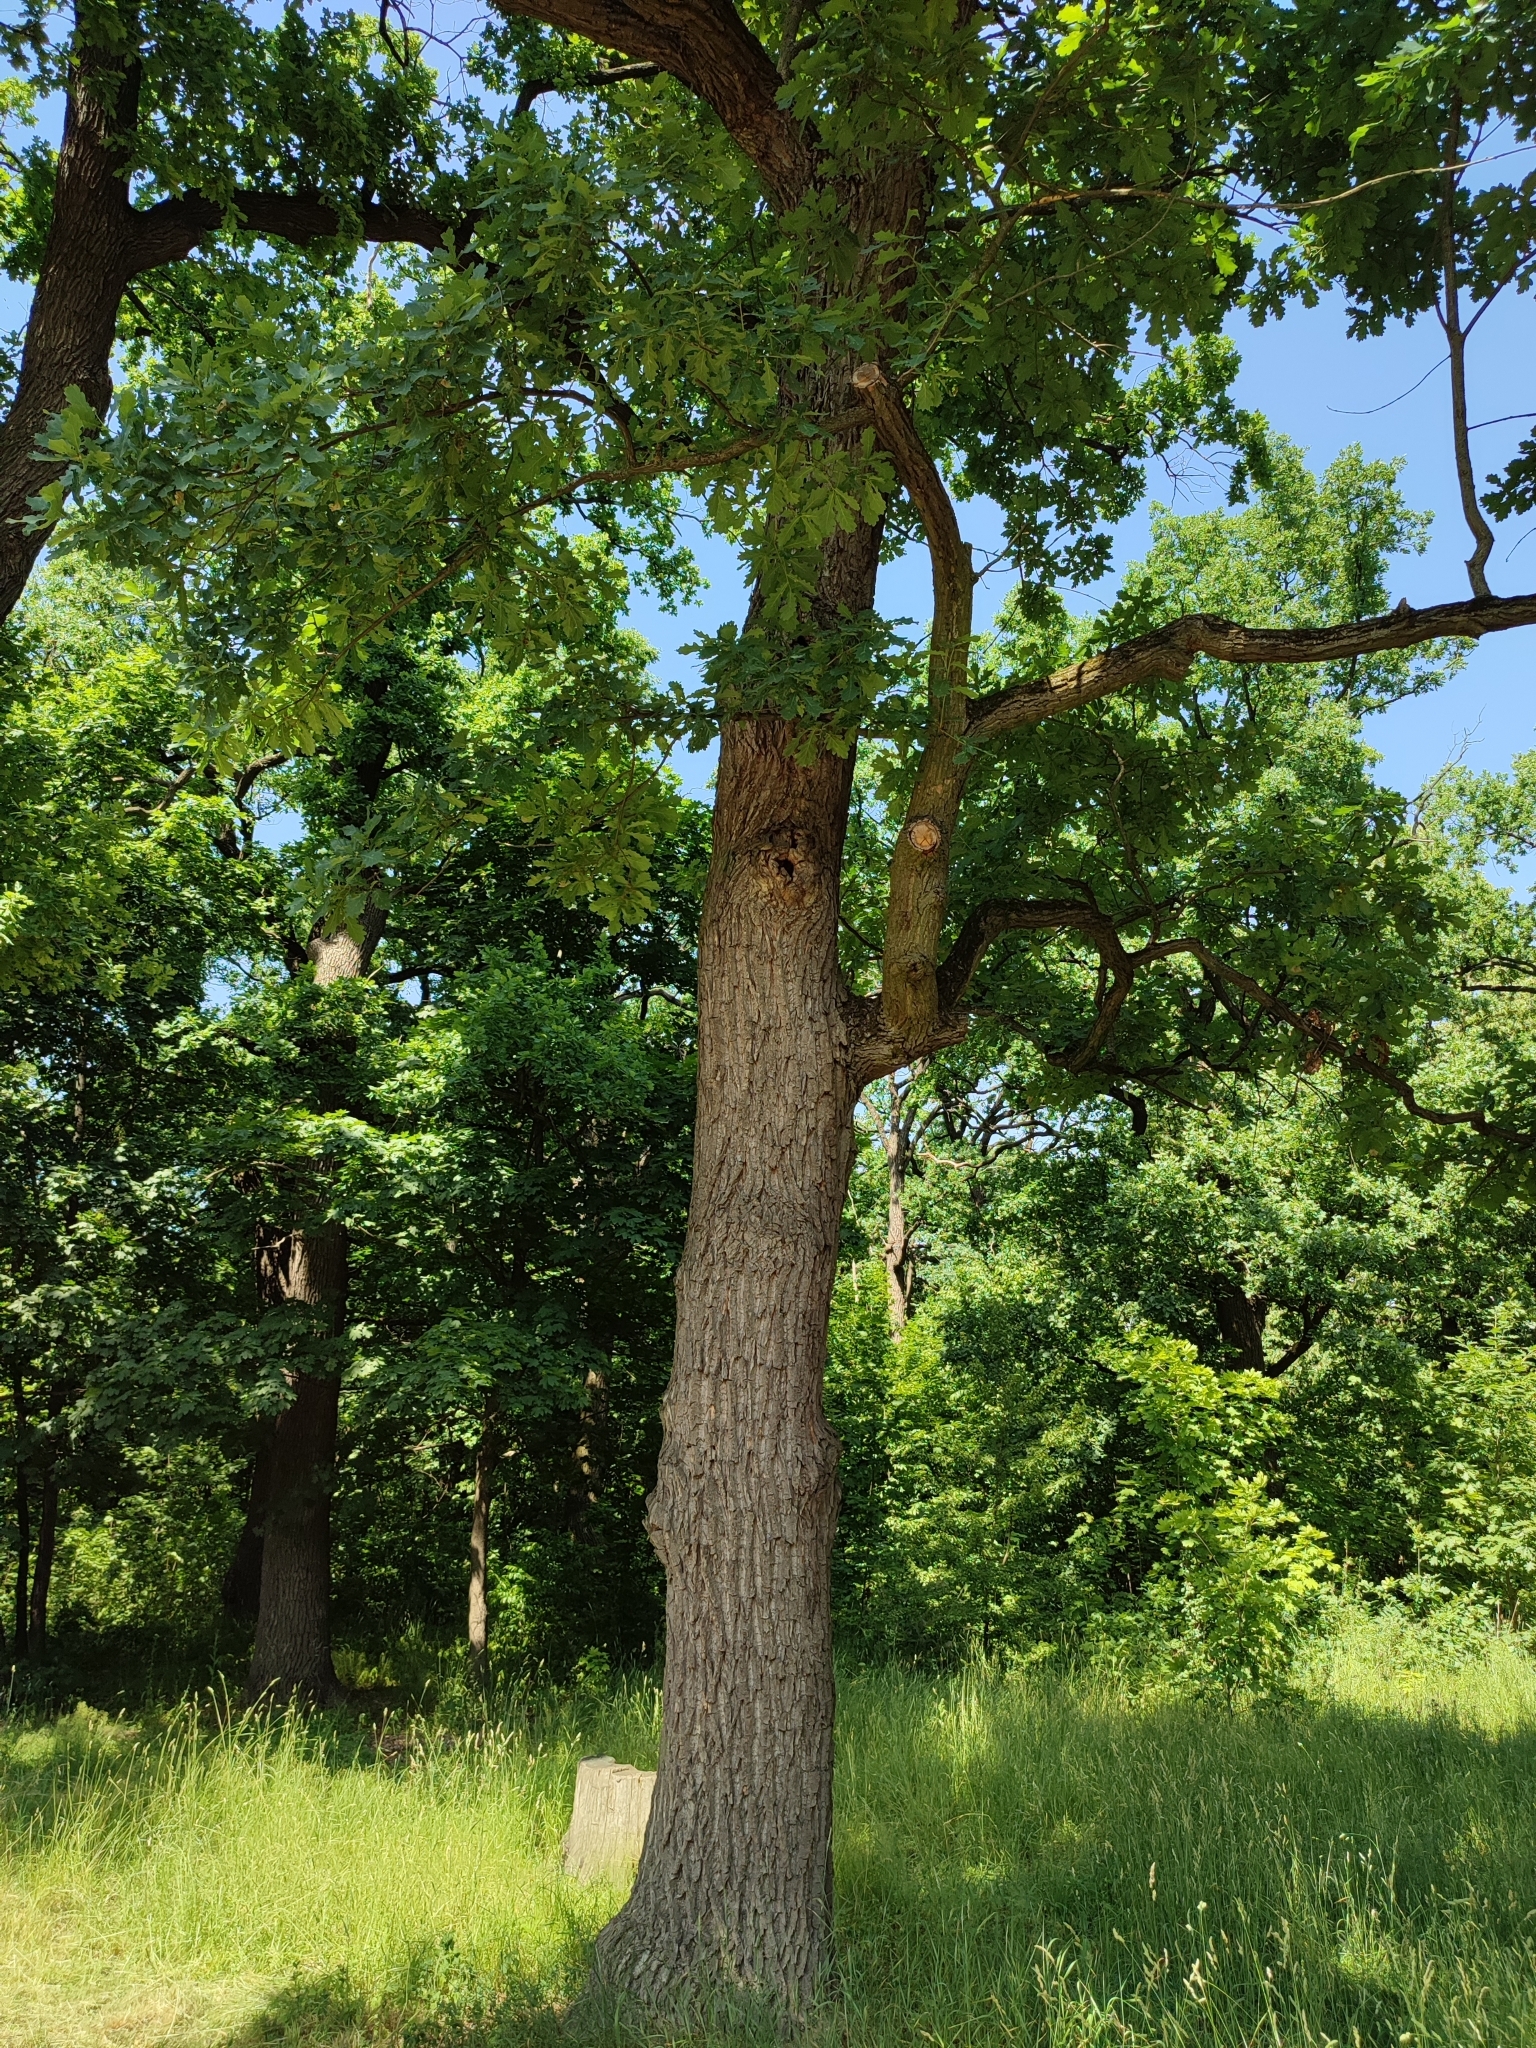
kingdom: Plantae
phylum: Tracheophyta
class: Magnoliopsida
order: Fagales
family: Fagaceae
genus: Quercus
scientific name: Quercus robur
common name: Pedunculate oak
